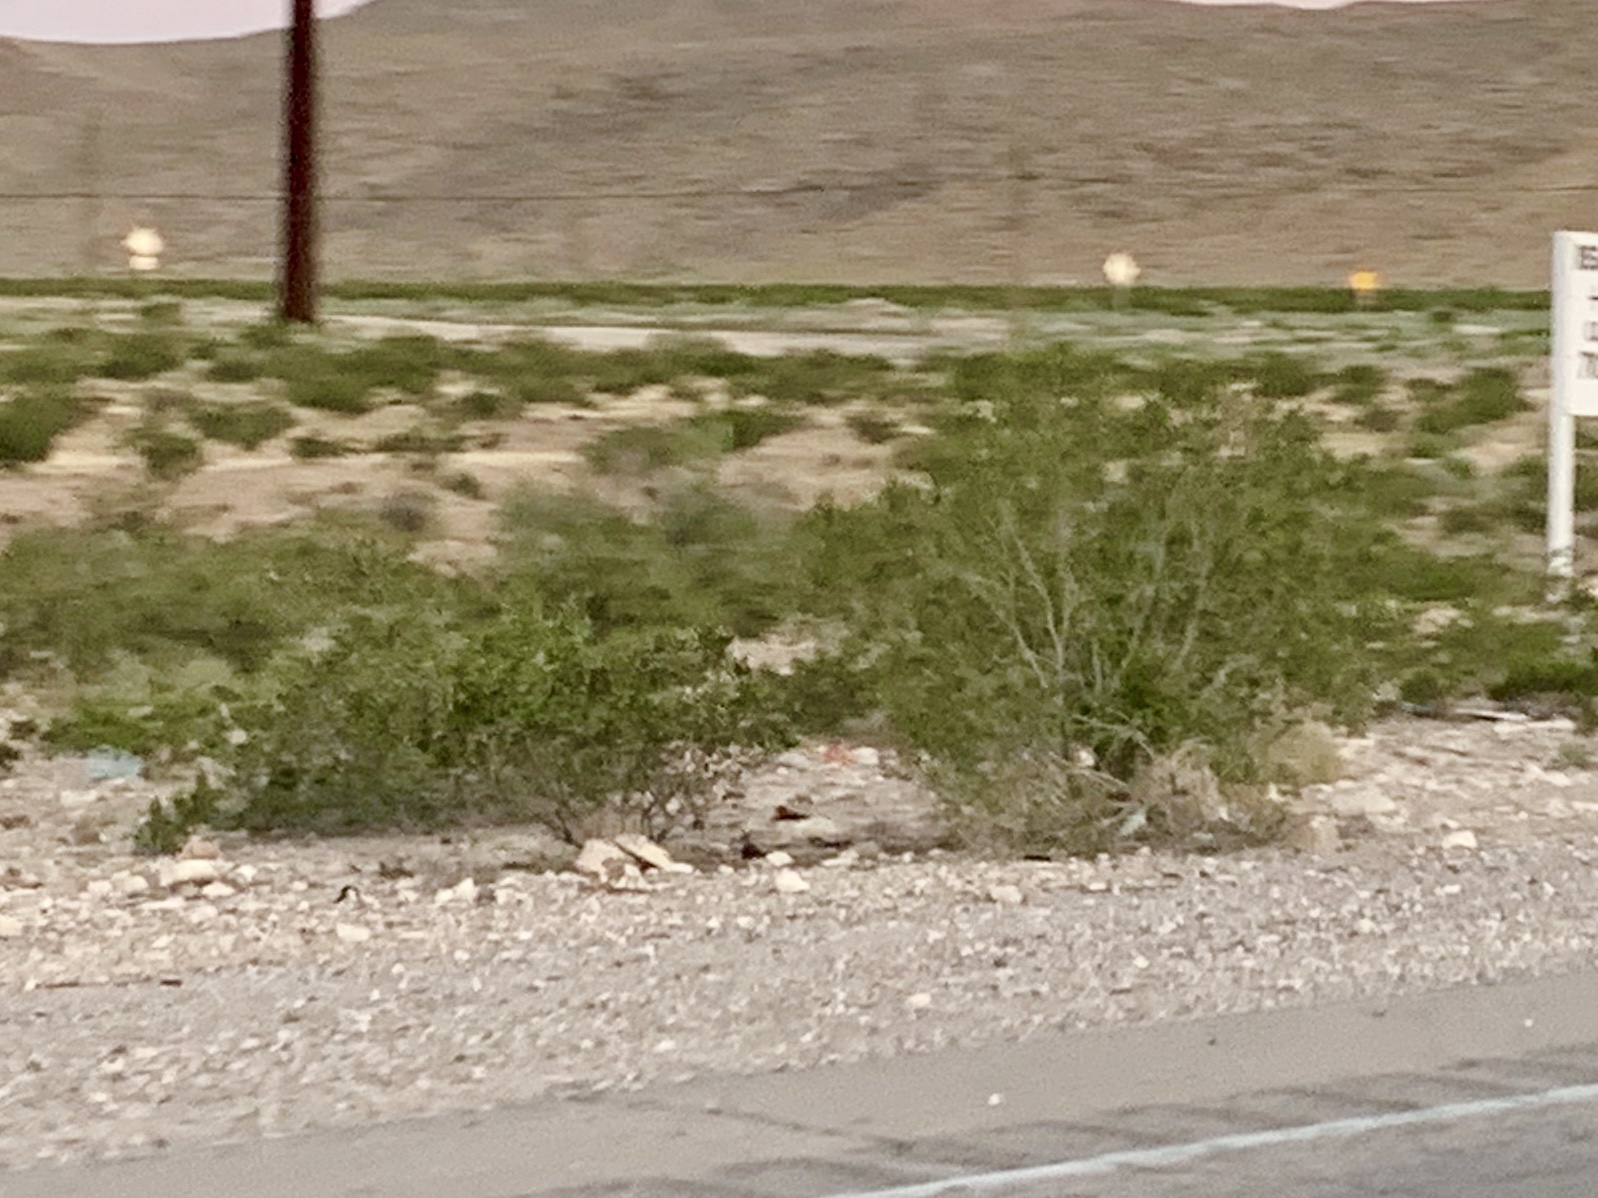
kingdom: Plantae
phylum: Tracheophyta
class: Magnoliopsida
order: Zygophyllales
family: Zygophyllaceae
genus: Larrea
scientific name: Larrea tridentata
